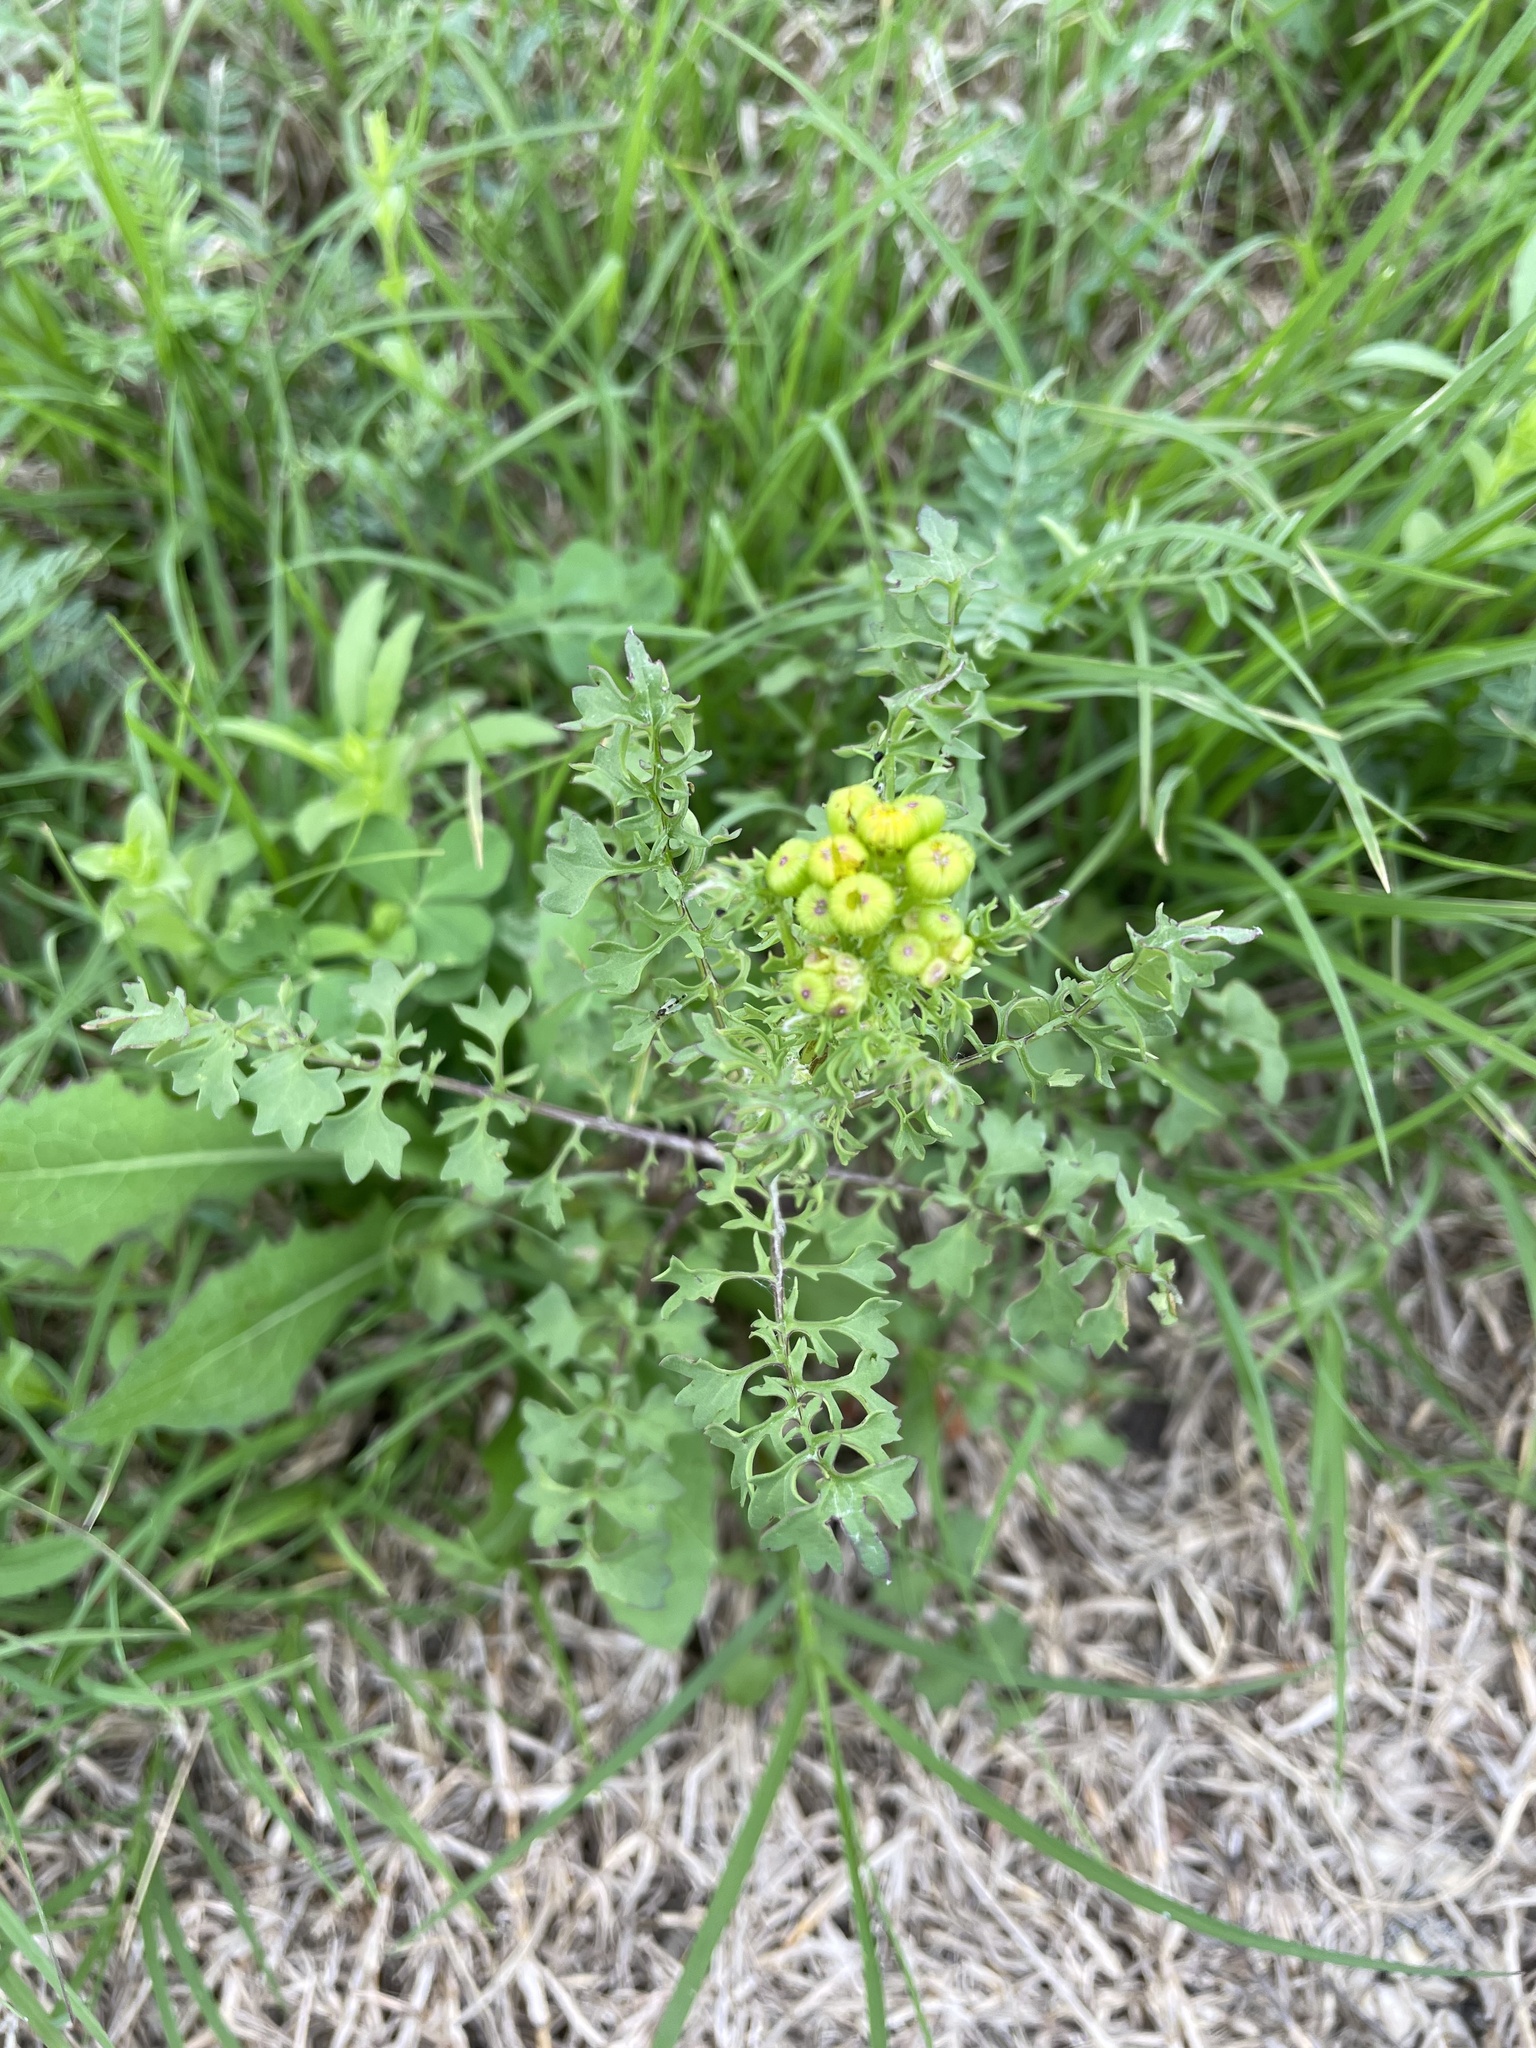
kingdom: Plantae
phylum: Tracheophyta
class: Magnoliopsida
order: Asterales
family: Asteraceae
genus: Packera
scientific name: Packera tampicana
